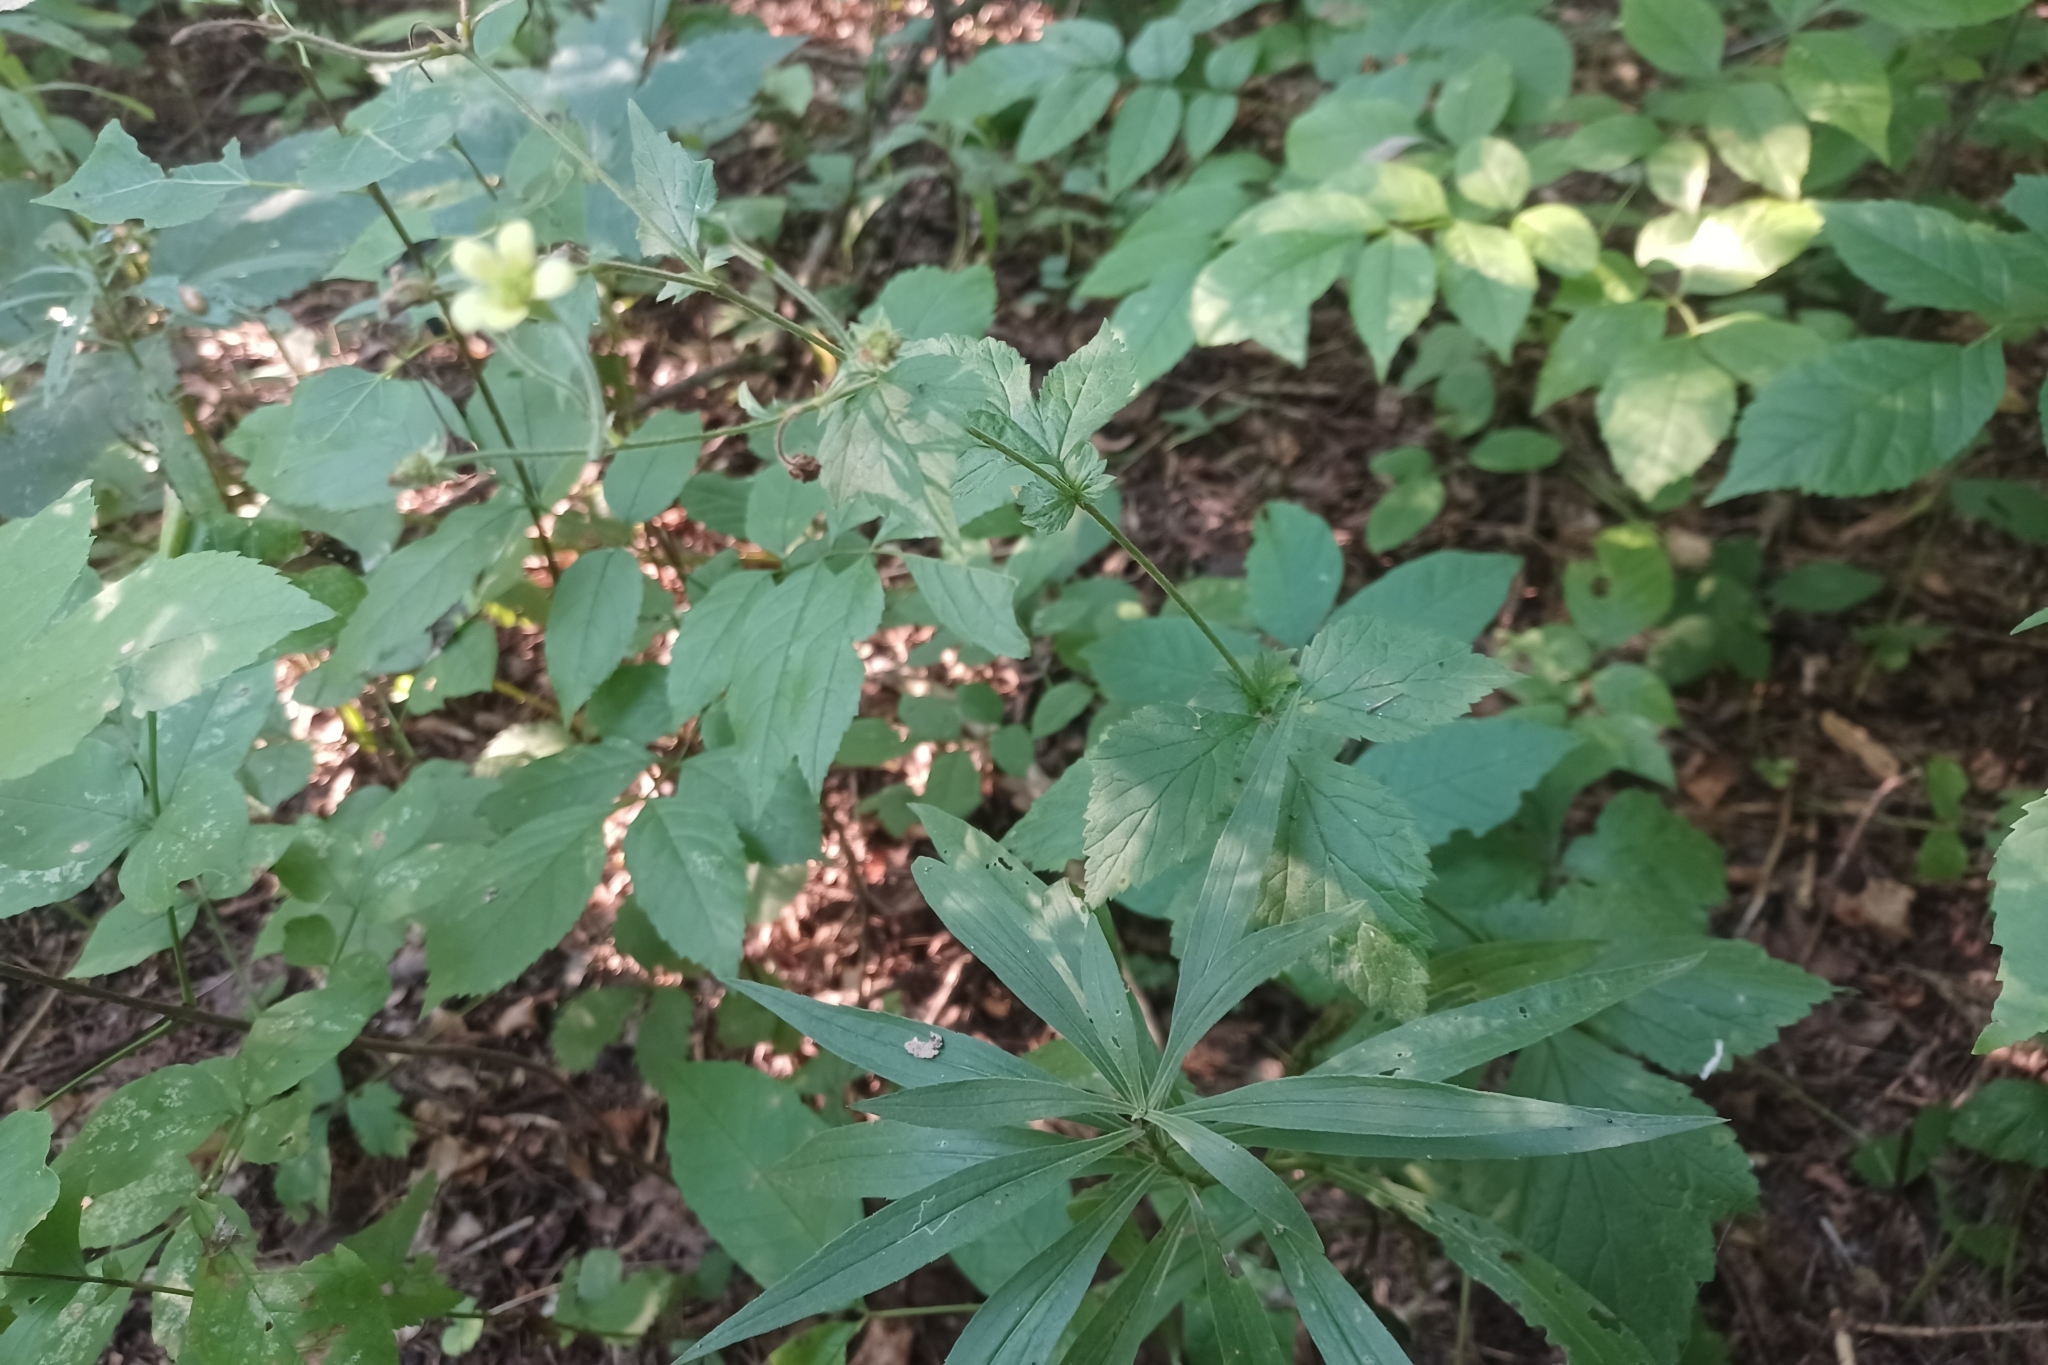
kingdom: Plantae
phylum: Tracheophyta
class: Magnoliopsida
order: Rosales
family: Rosaceae
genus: Geum
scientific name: Geum catlingii
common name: Catling's avens
